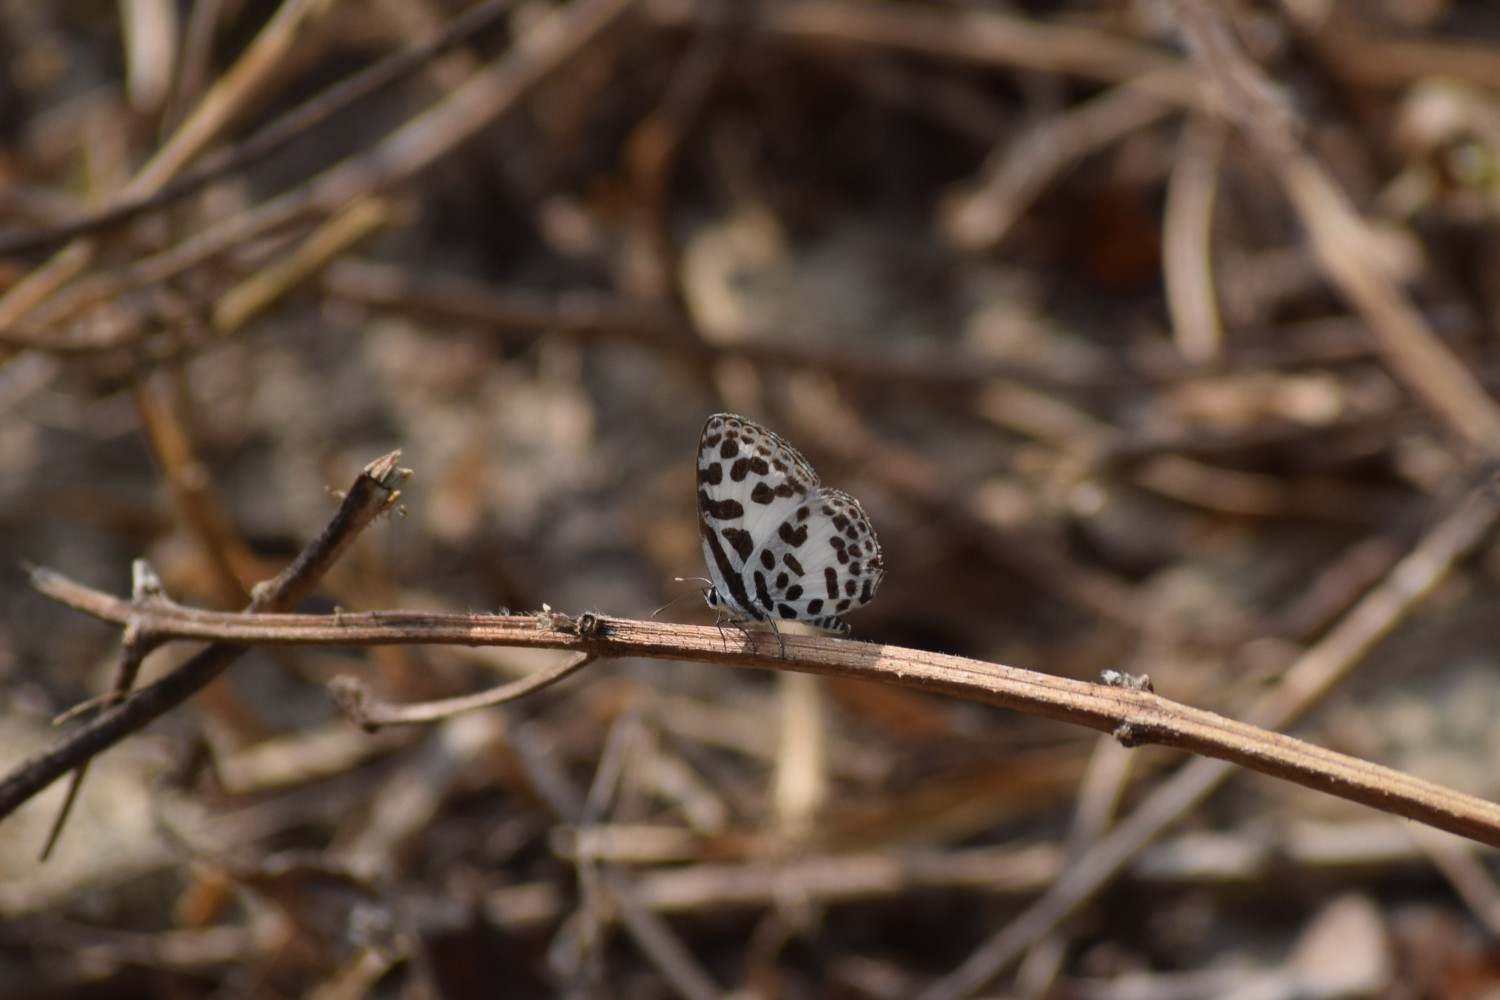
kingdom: Animalia
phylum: Arthropoda
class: Insecta
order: Lepidoptera
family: Lycaenidae
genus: Castalius
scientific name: Castalius rosimon
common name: Common pierrot
